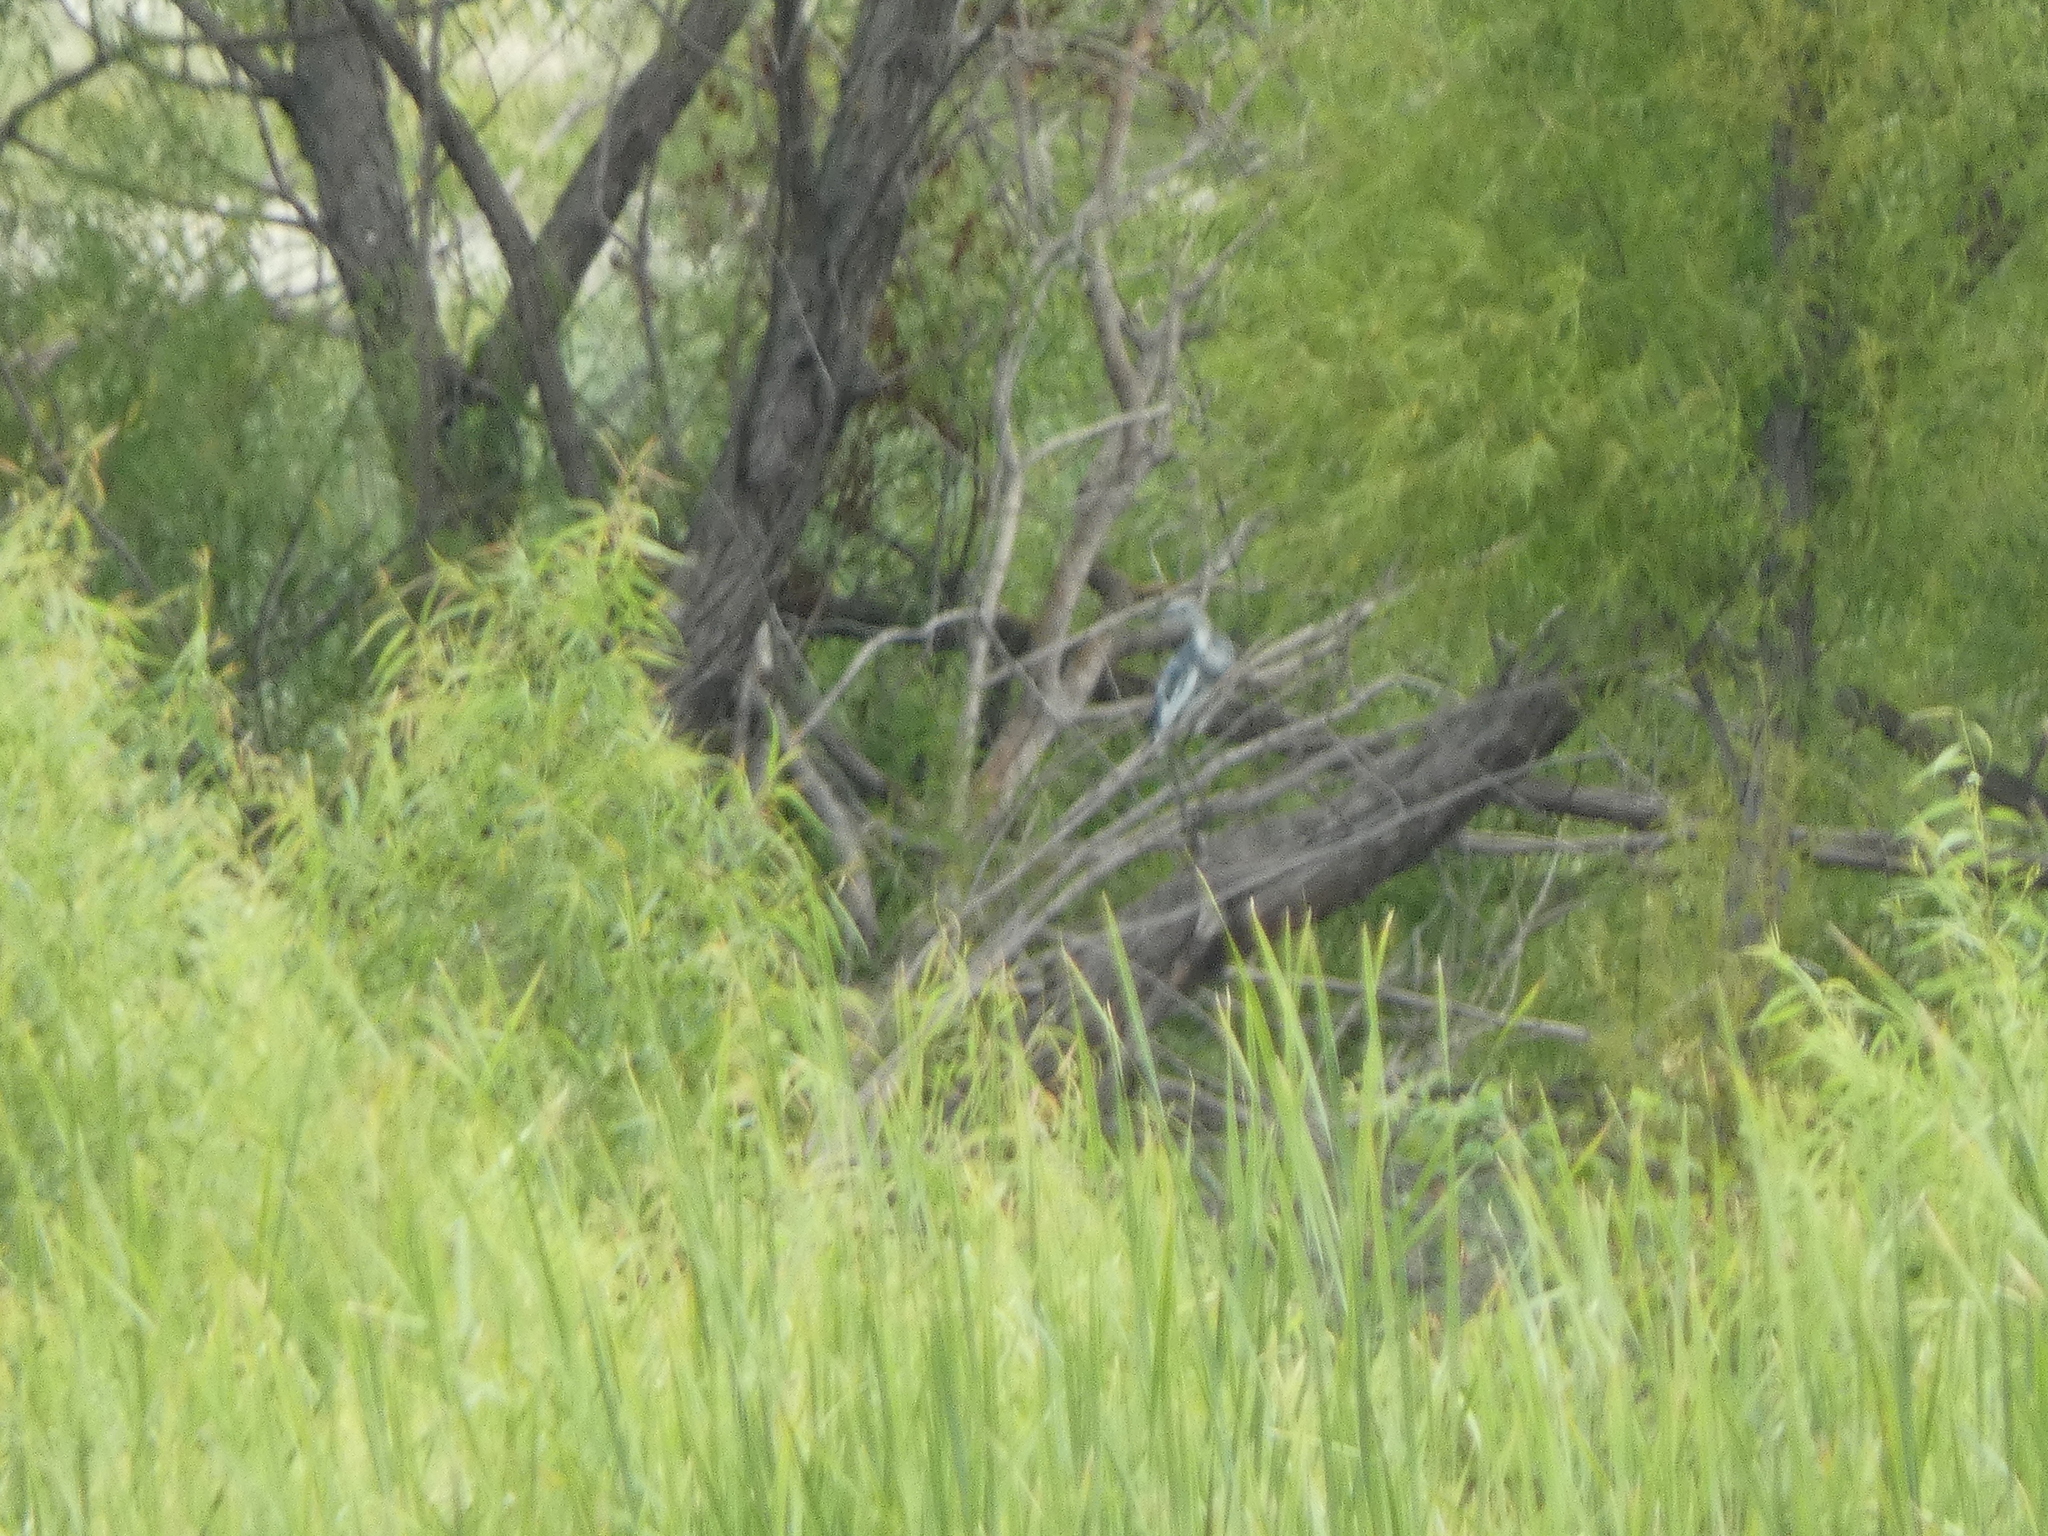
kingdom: Animalia
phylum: Chordata
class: Aves
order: Pelecaniformes
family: Ardeidae
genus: Egretta
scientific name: Egretta caerulea
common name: Little blue heron
